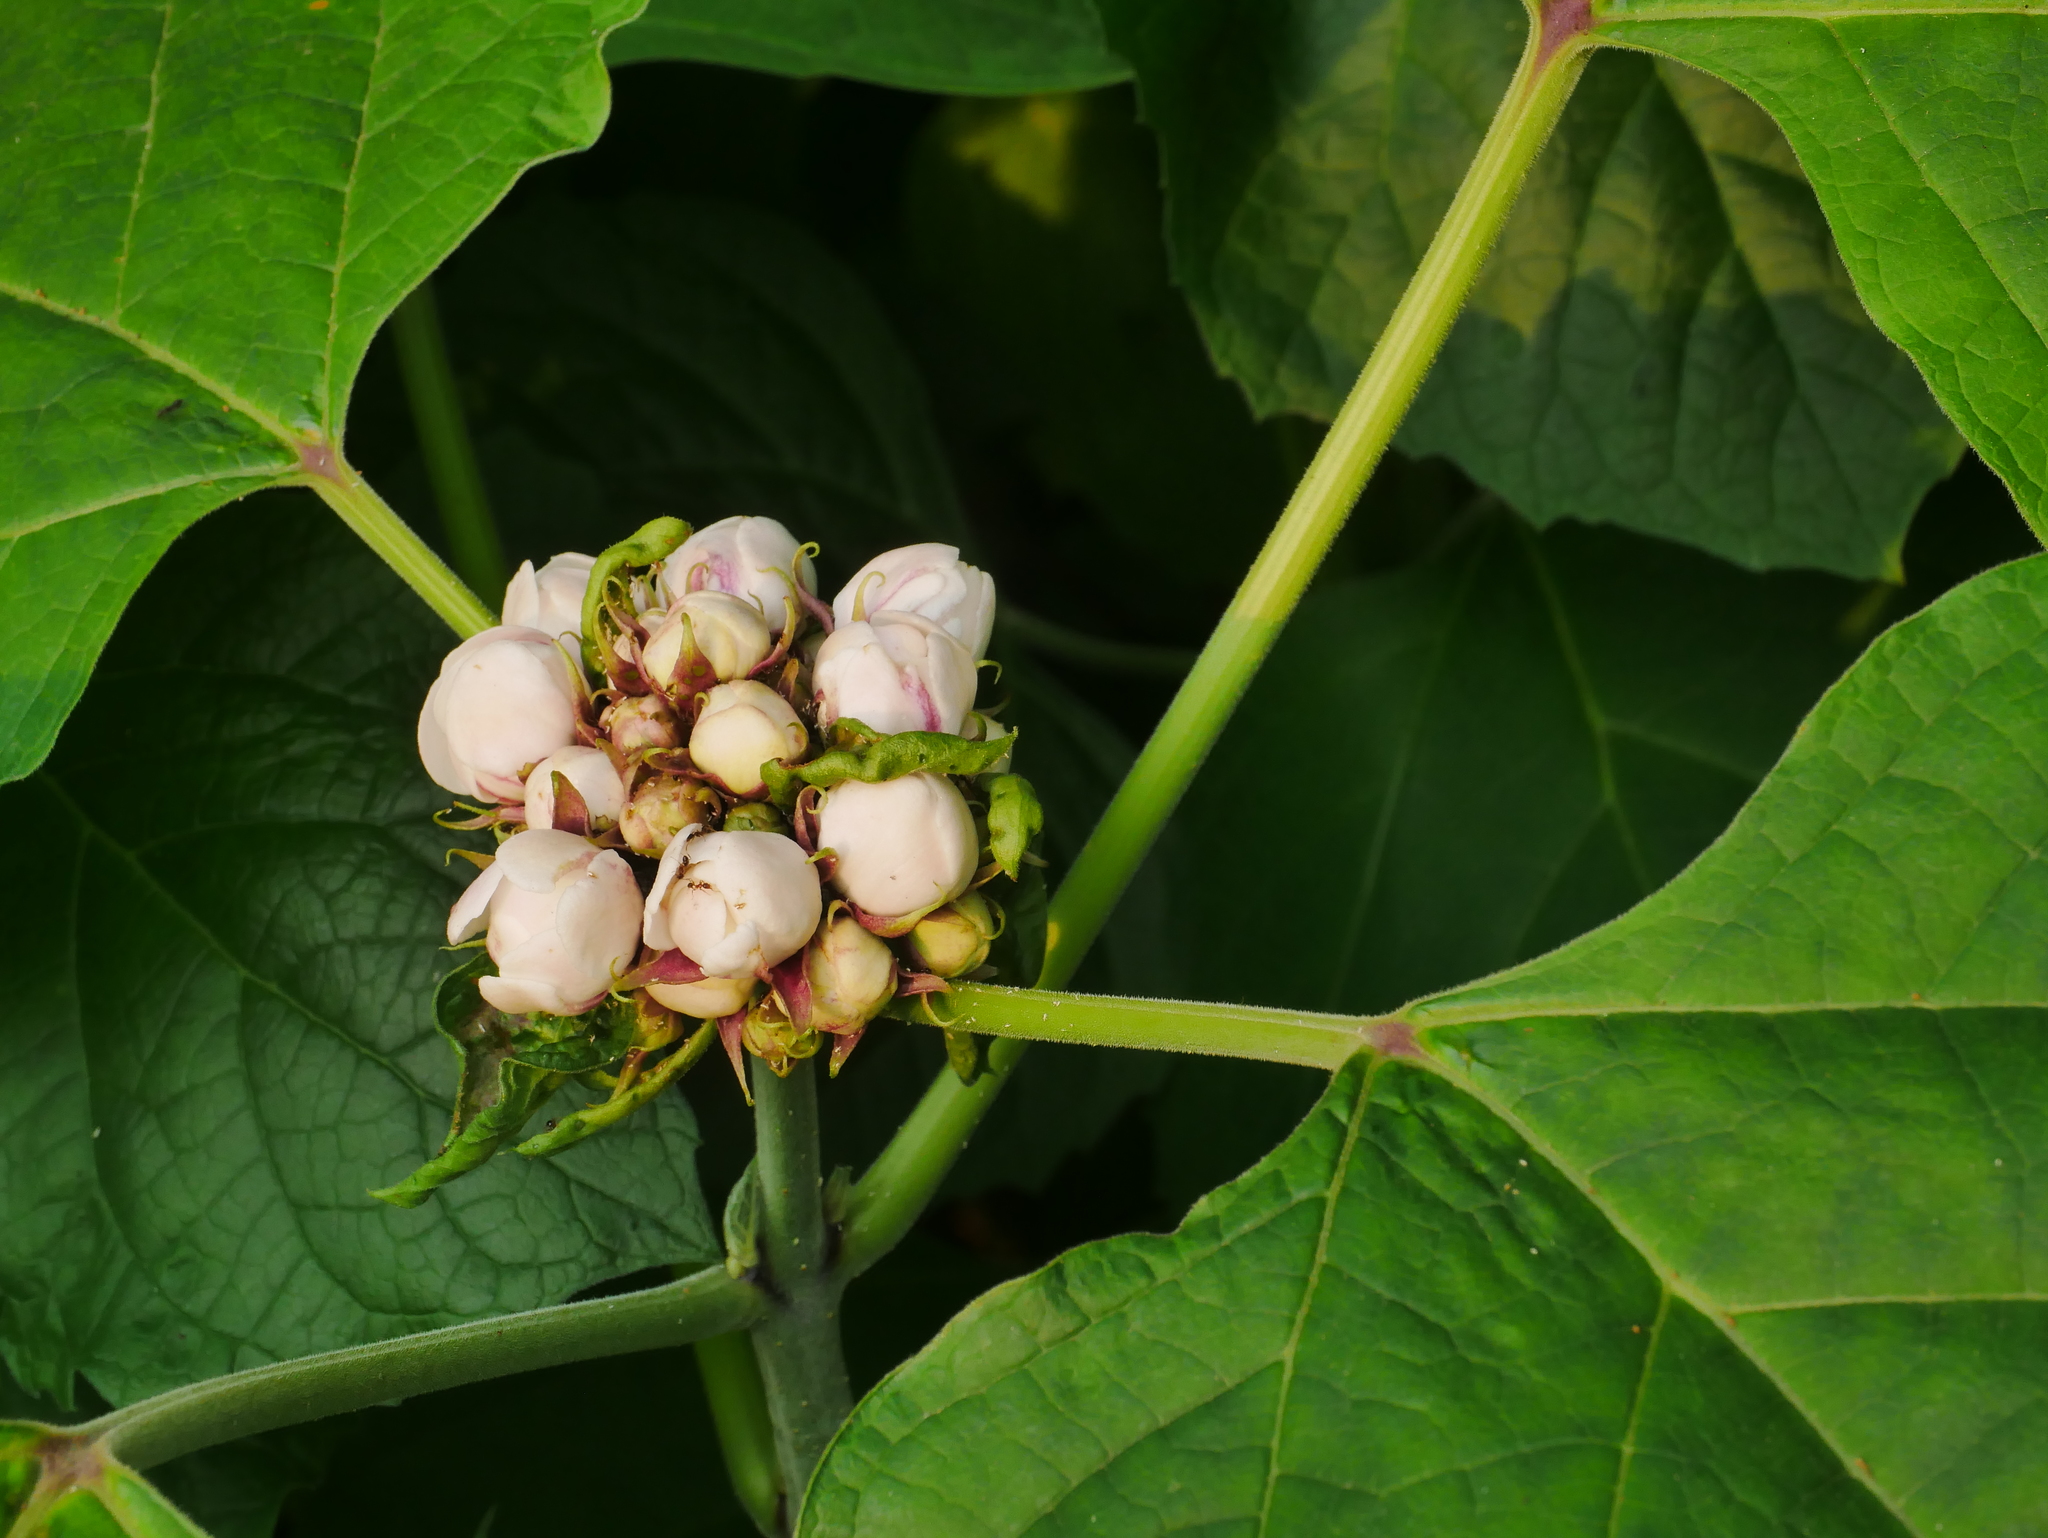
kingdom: Plantae
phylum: Tracheophyta
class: Magnoliopsida
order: Lamiales
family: Lamiaceae
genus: Clerodendrum
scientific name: Clerodendrum chinense
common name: Stickbush
